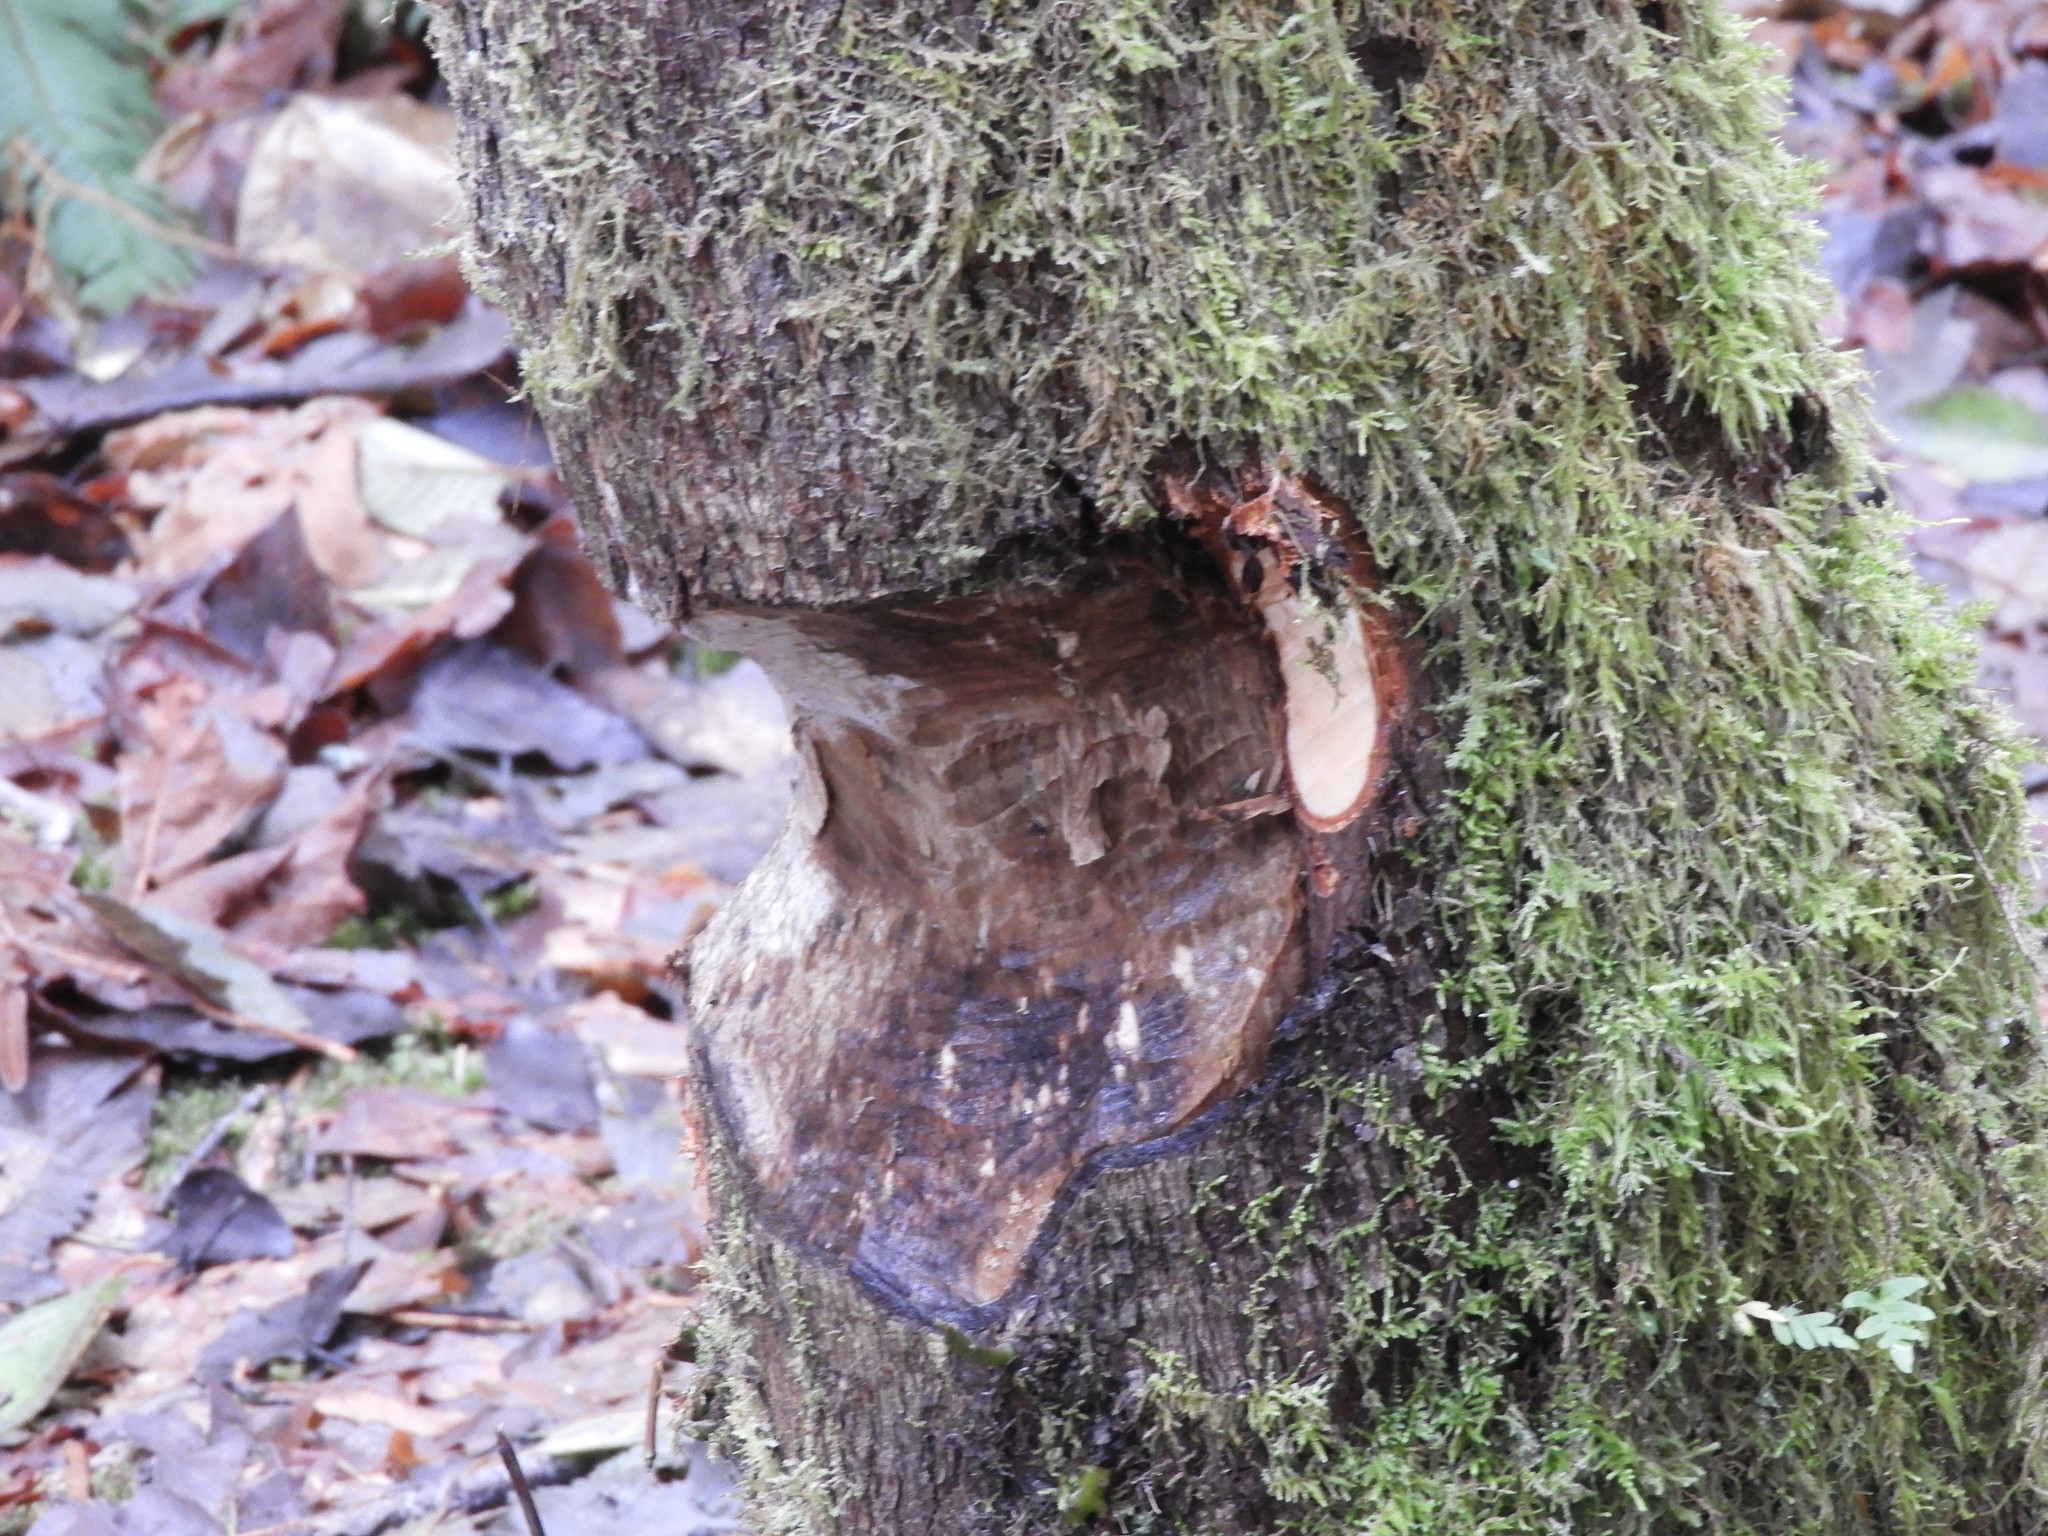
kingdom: Animalia
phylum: Chordata
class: Mammalia
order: Rodentia
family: Castoridae
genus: Castor
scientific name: Castor canadensis
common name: American beaver
